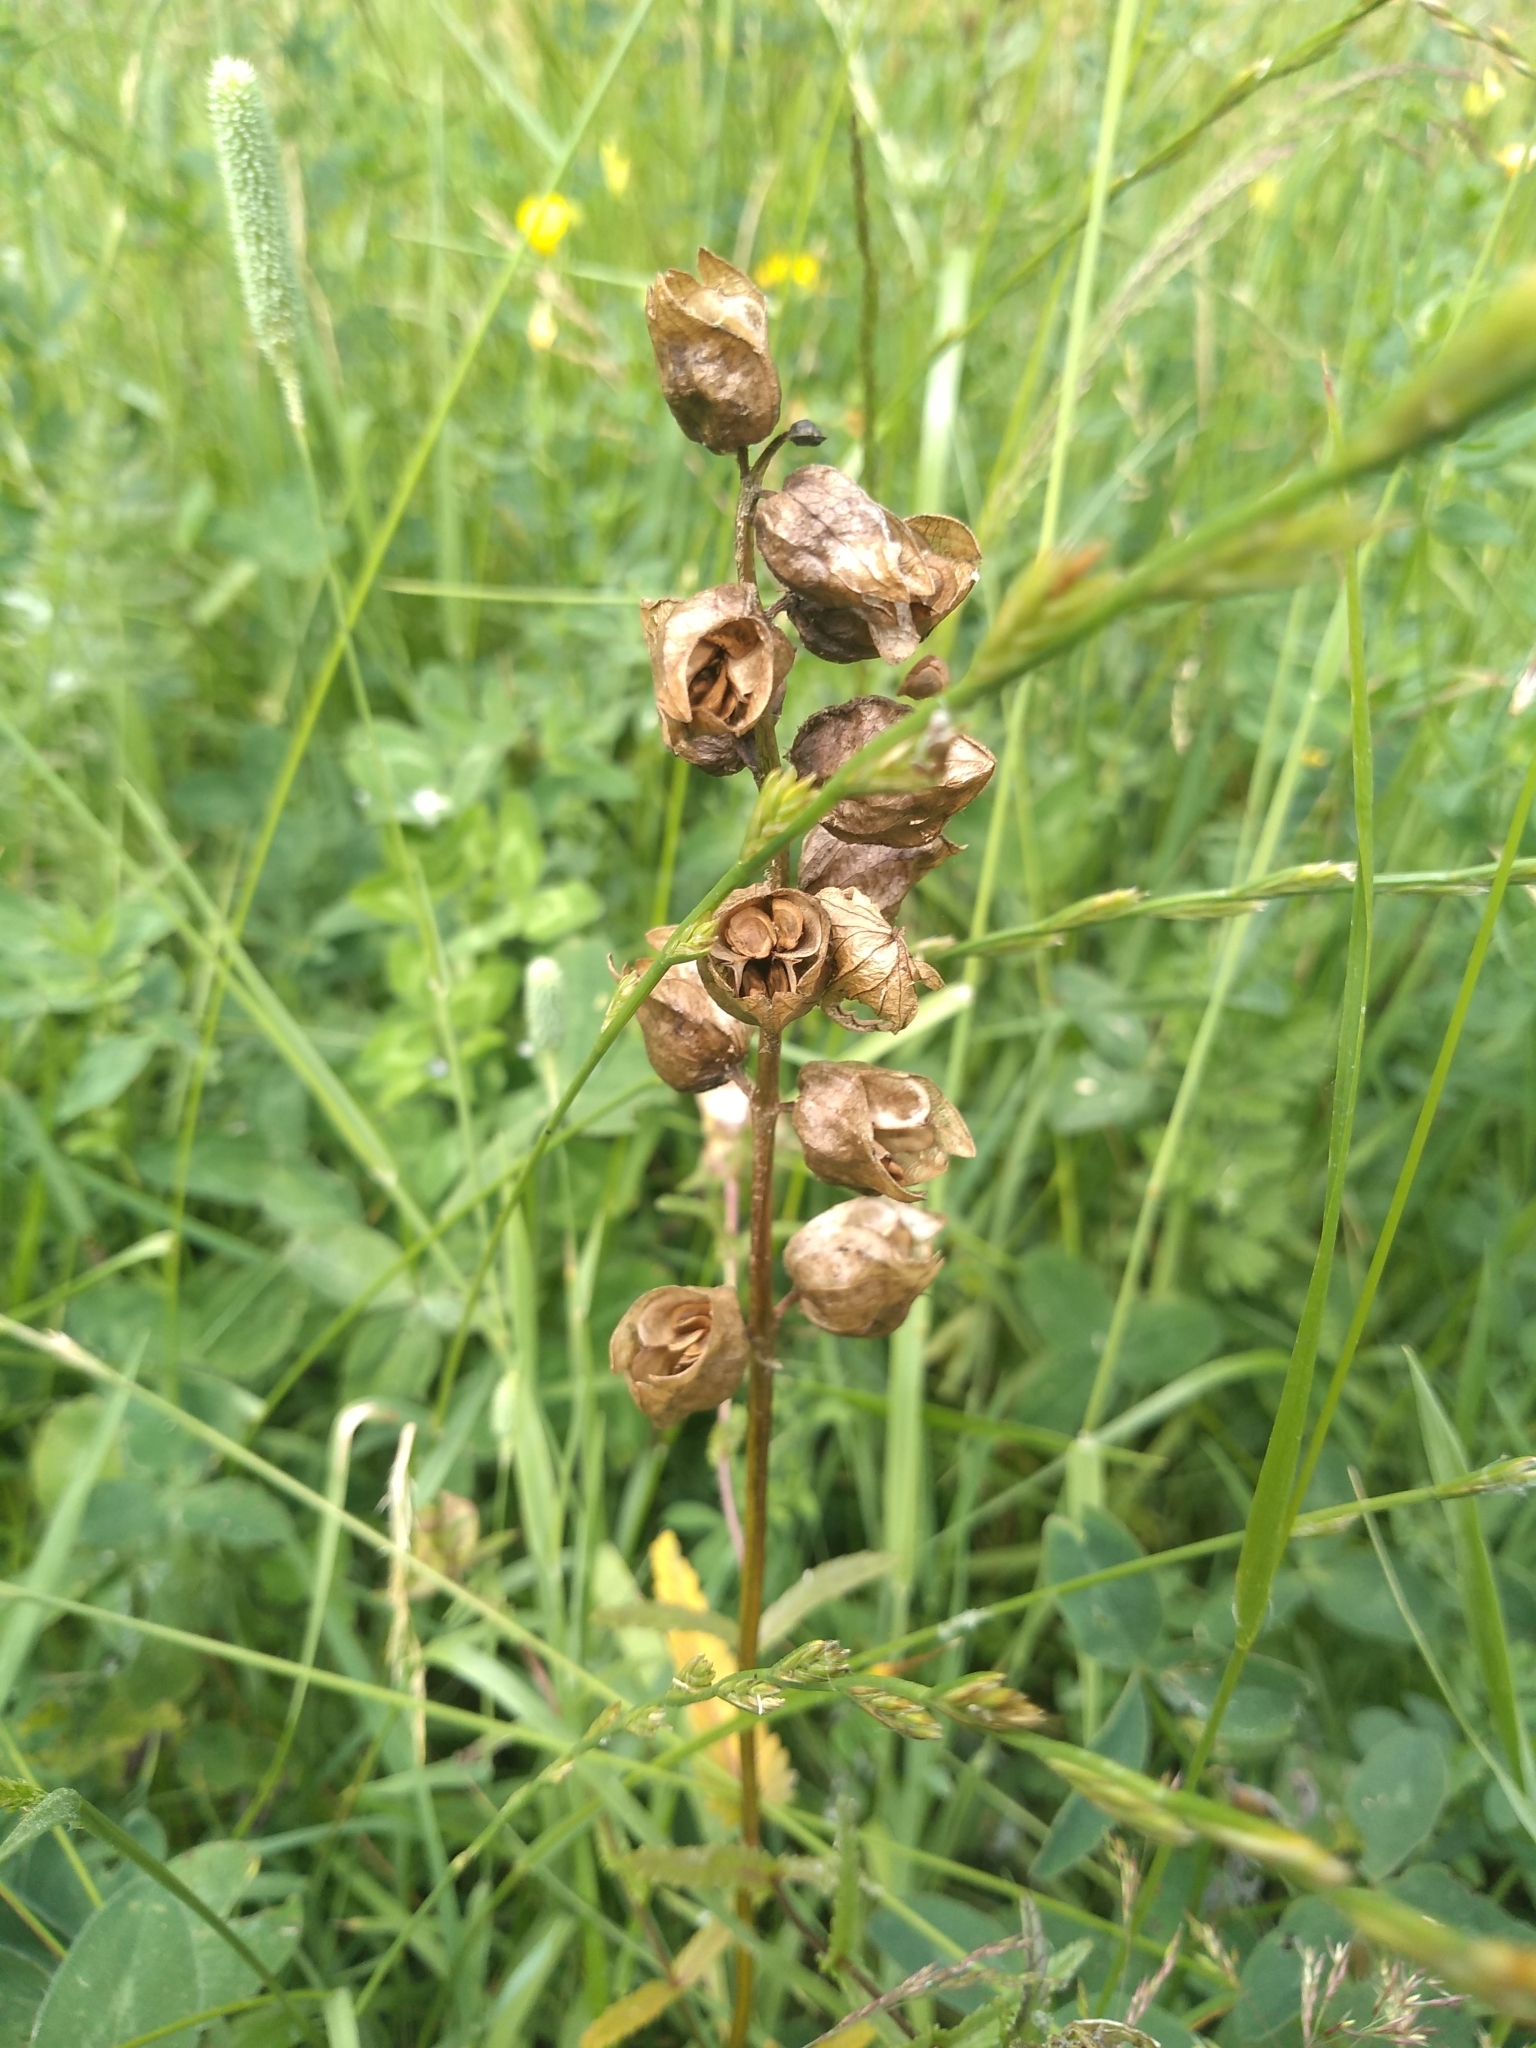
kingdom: Plantae
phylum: Tracheophyta
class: Magnoliopsida
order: Lamiales
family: Orobanchaceae
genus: Rhinanthus
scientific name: Rhinanthus minor
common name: Yellow-rattle
